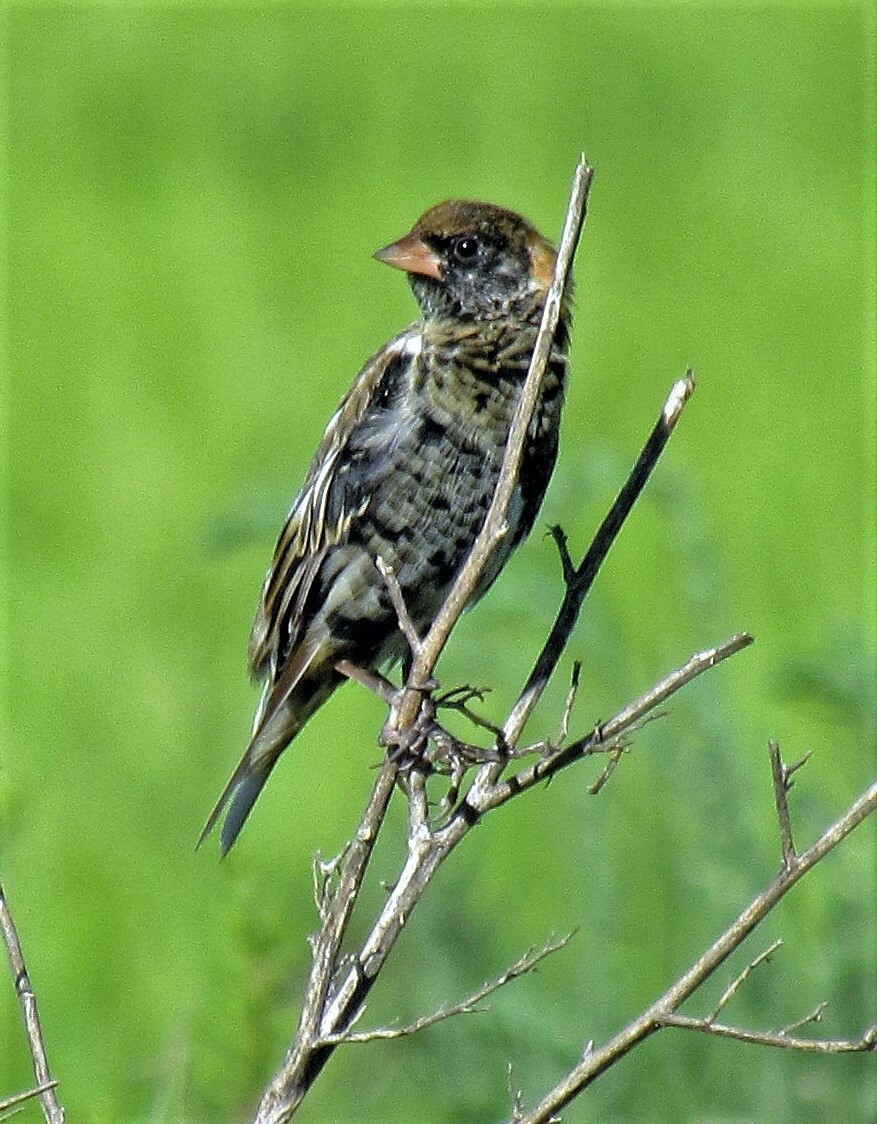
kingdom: Animalia
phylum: Chordata
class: Aves
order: Passeriformes
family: Icteridae
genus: Dolichonyx
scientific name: Dolichonyx oryzivorus
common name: Bobolink
